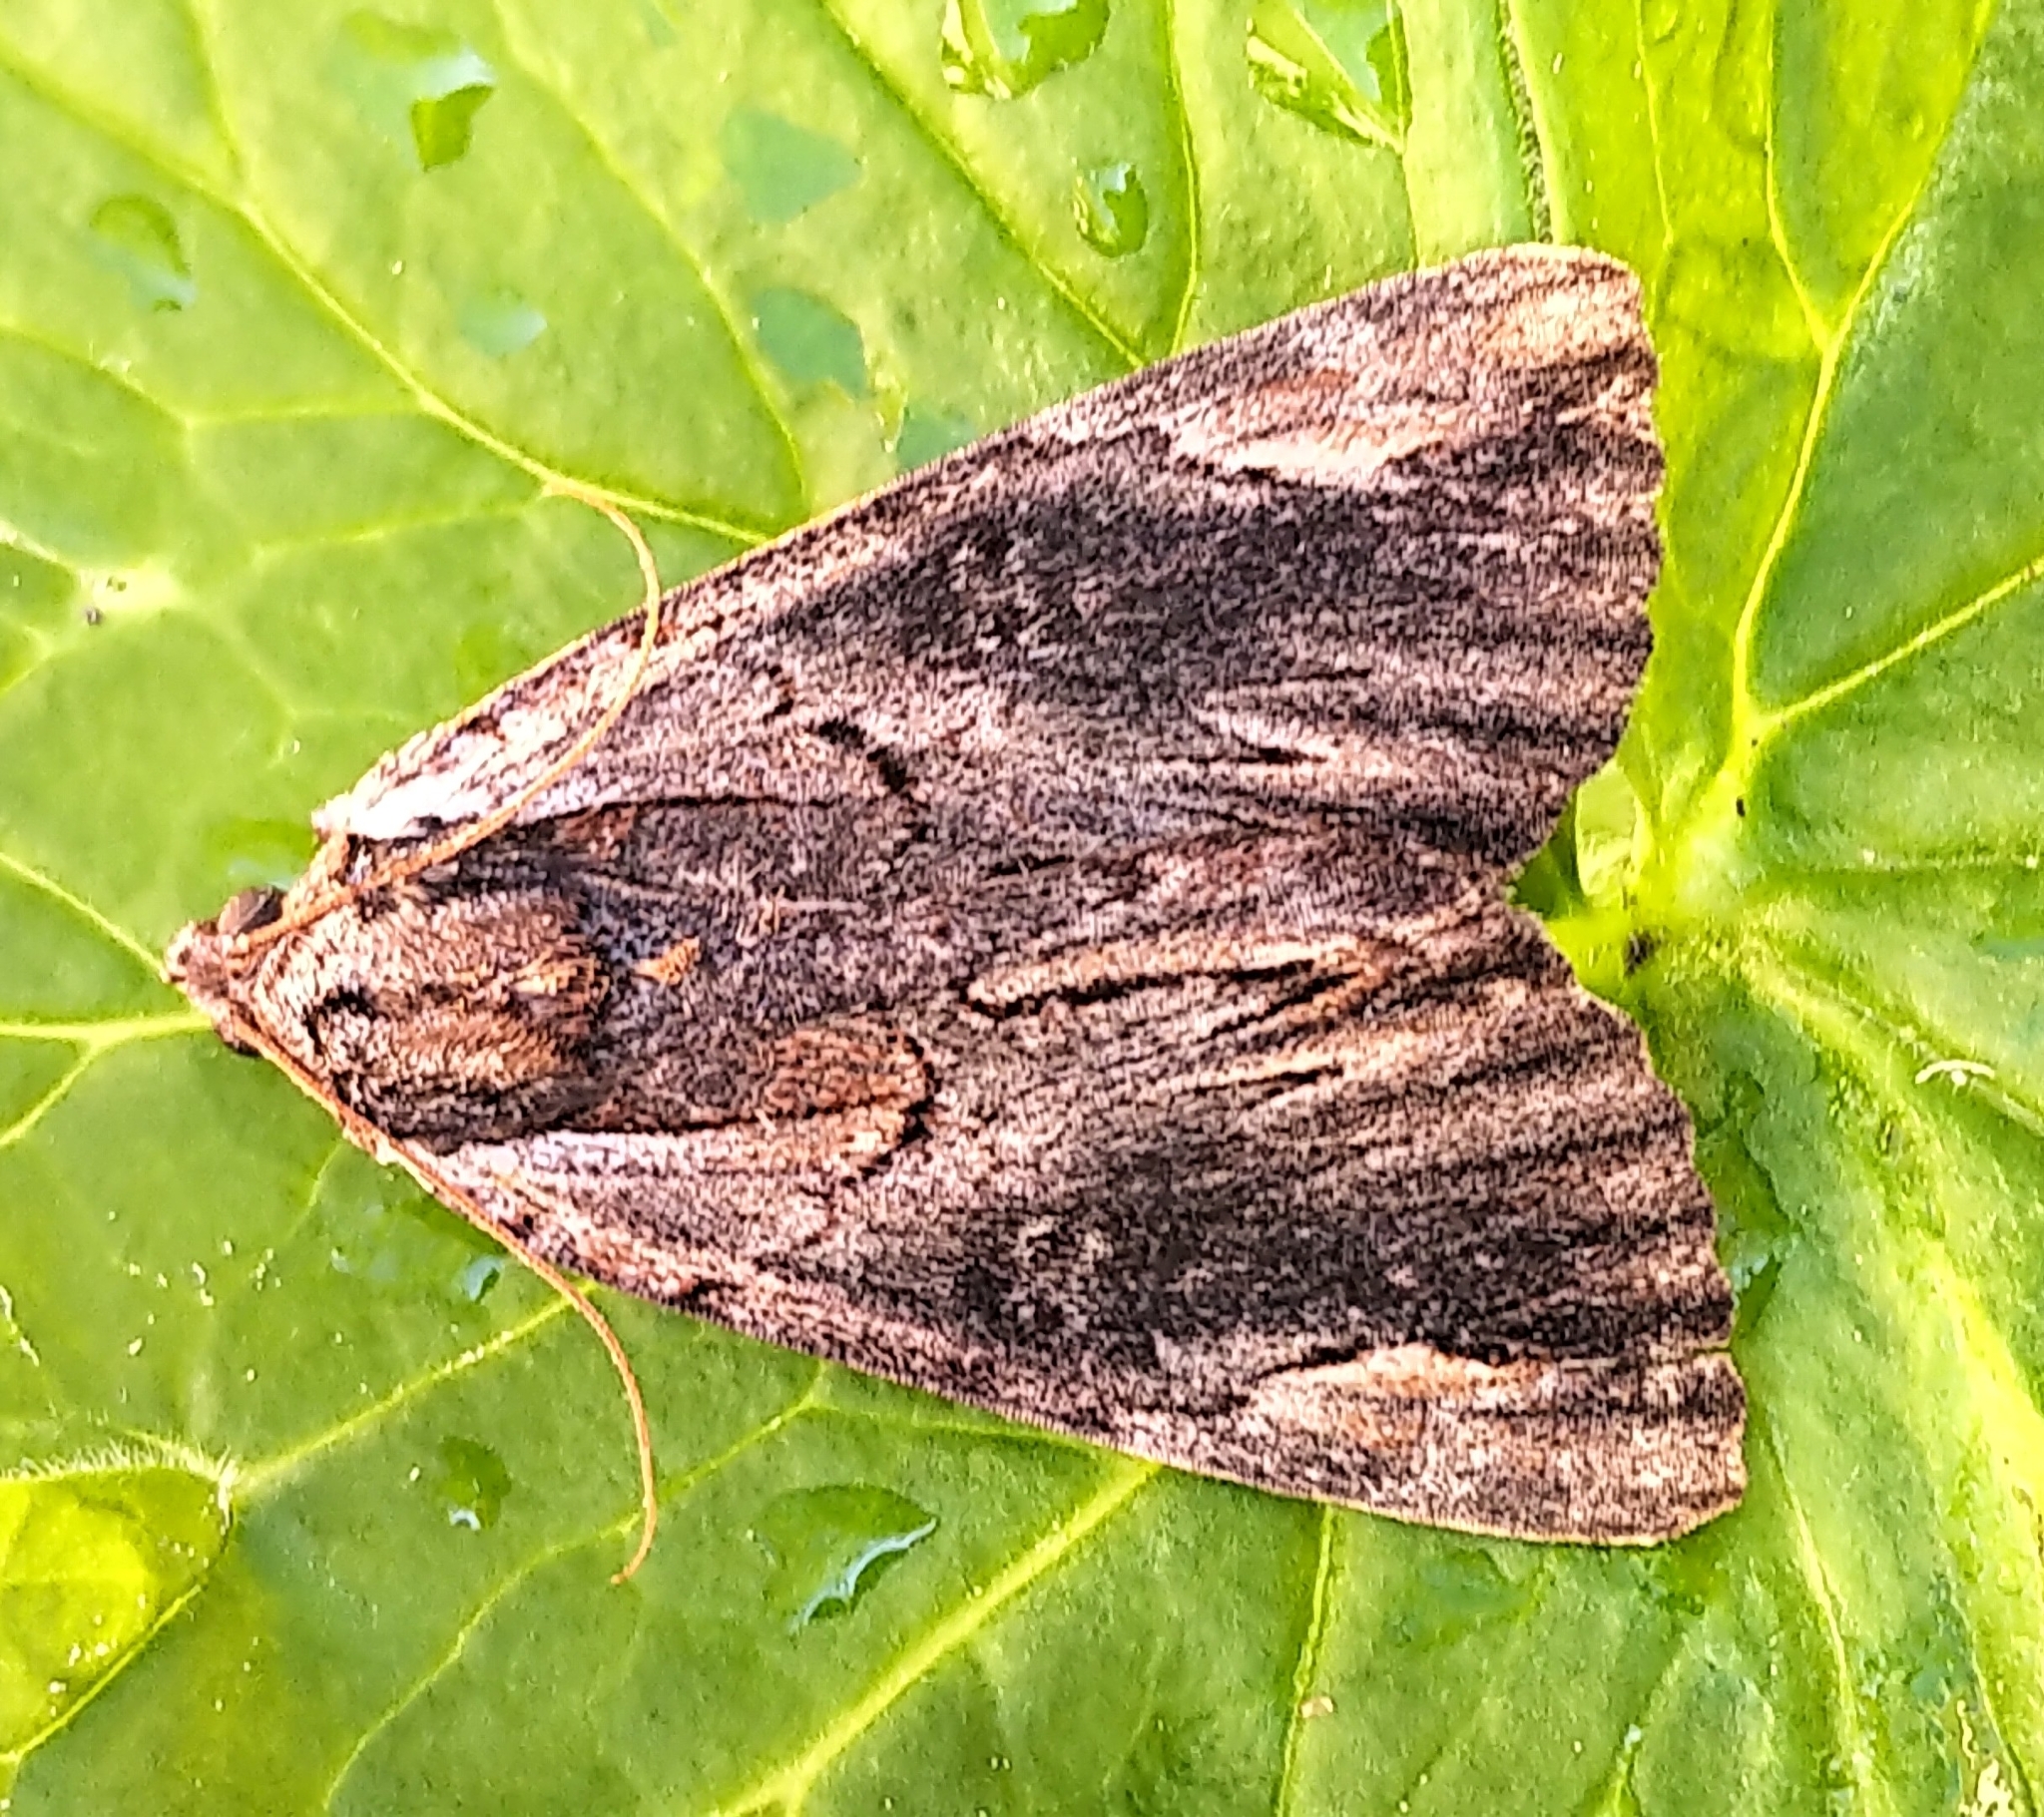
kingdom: Animalia
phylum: Arthropoda
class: Insecta
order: Lepidoptera
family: Erebidae
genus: Catocala
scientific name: Catocala ultronia
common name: Ultronia underwing
